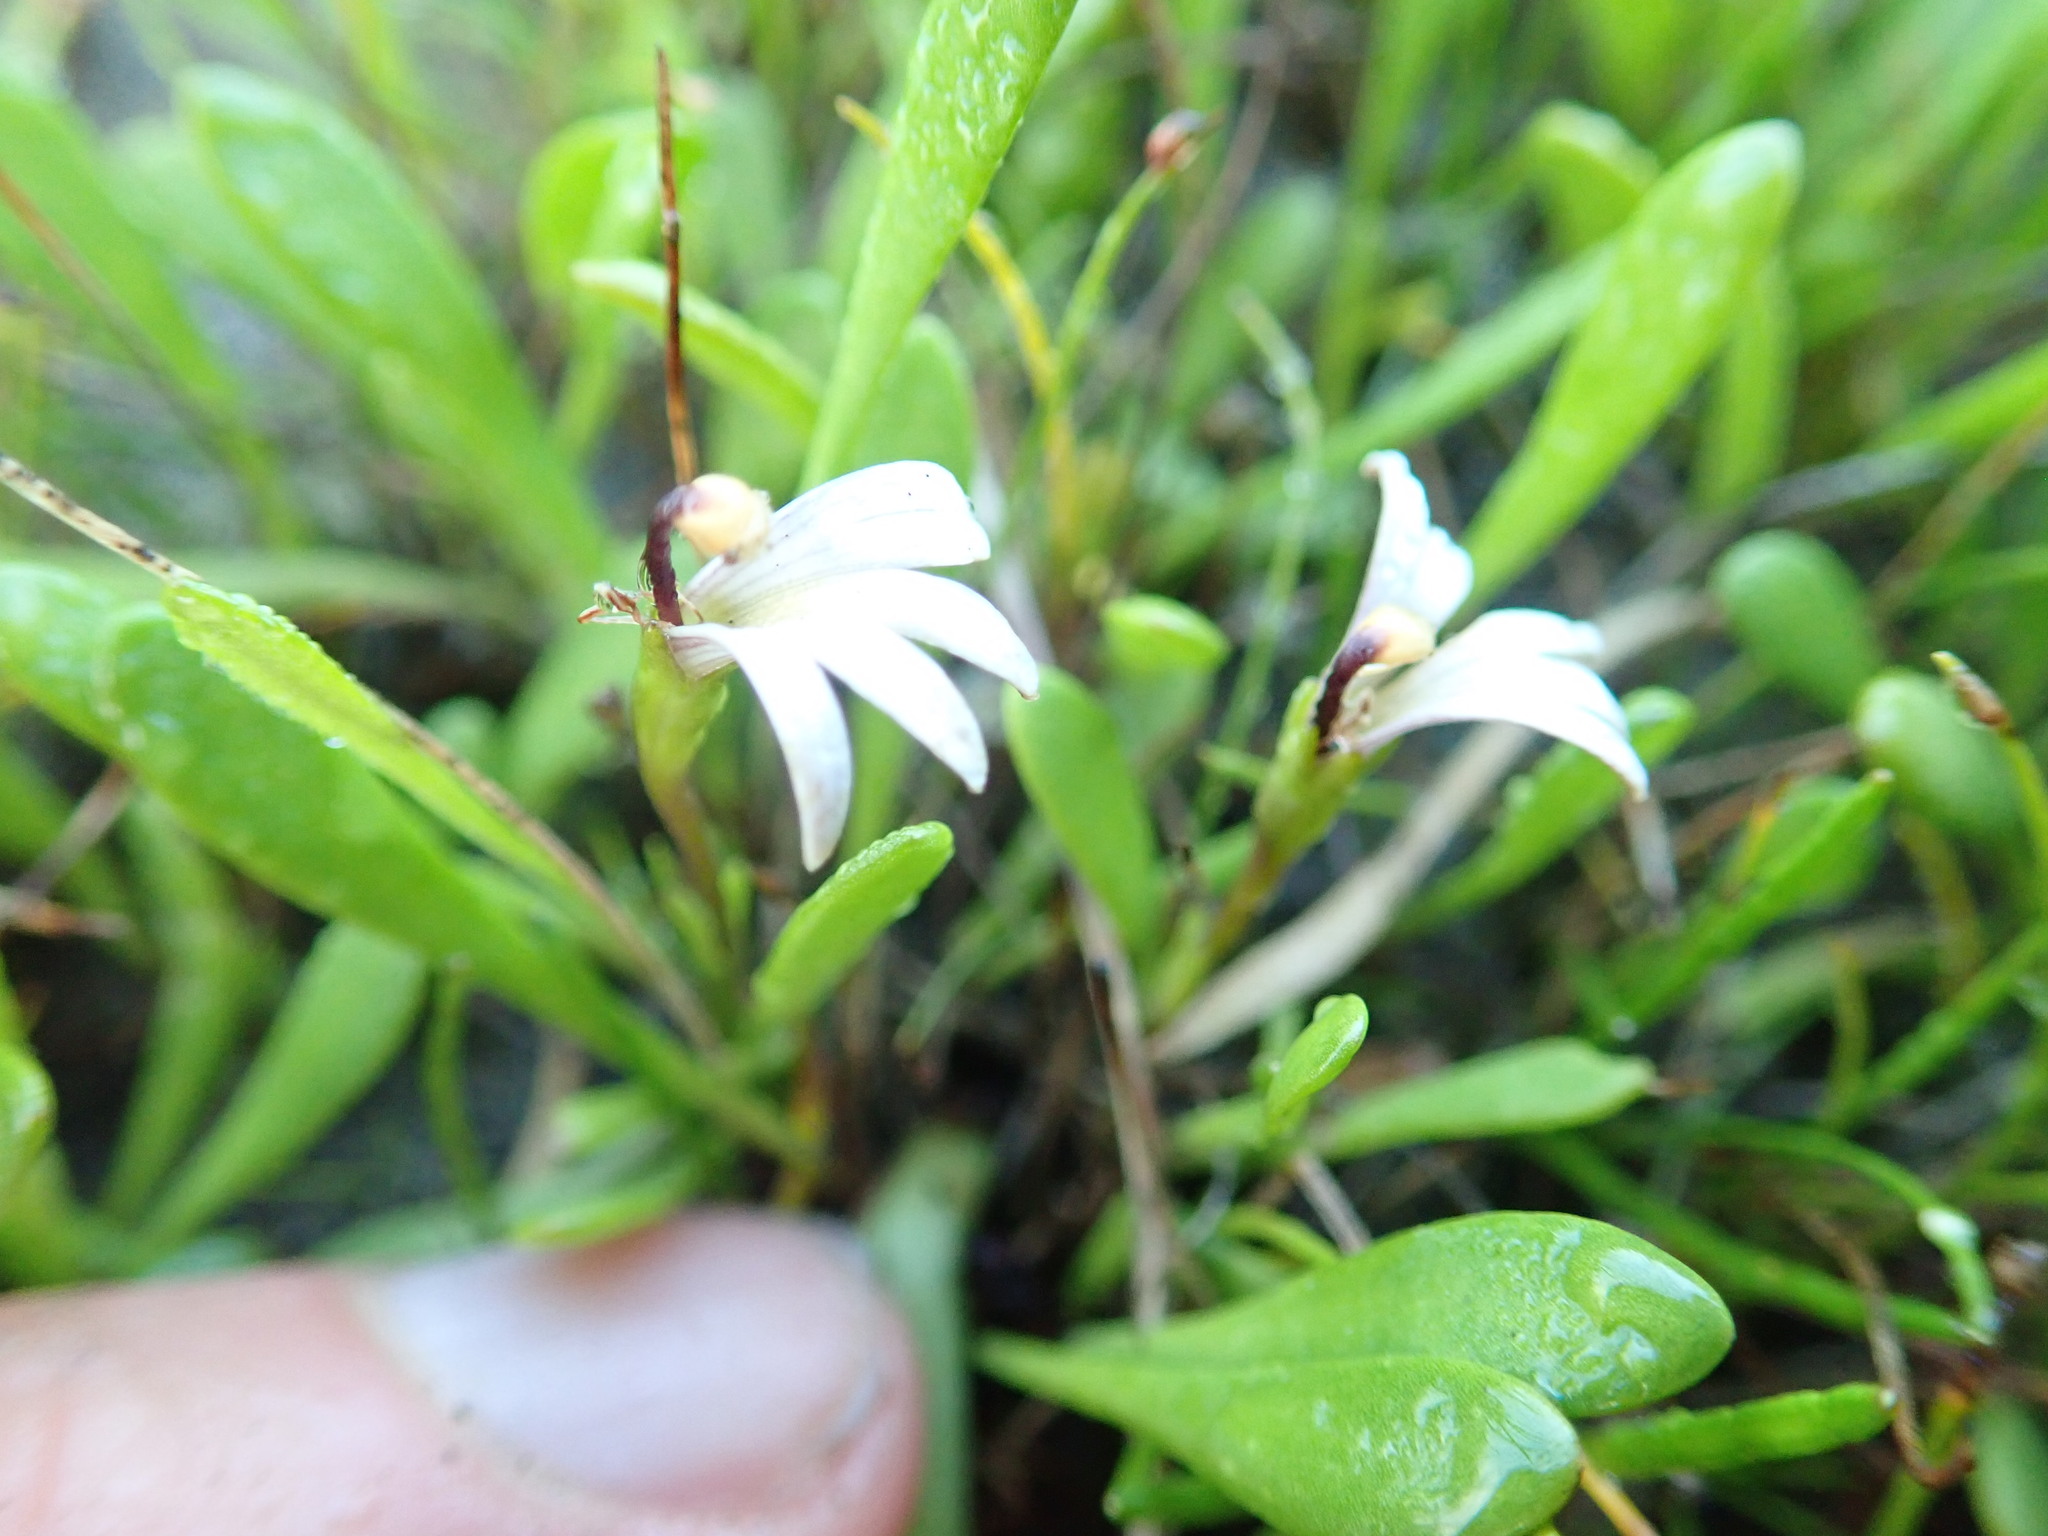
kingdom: Plantae
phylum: Tracheophyta
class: Magnoliopsida
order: Asterales
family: Goodeniaceae
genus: Goodenia
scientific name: Goodenia radicans
